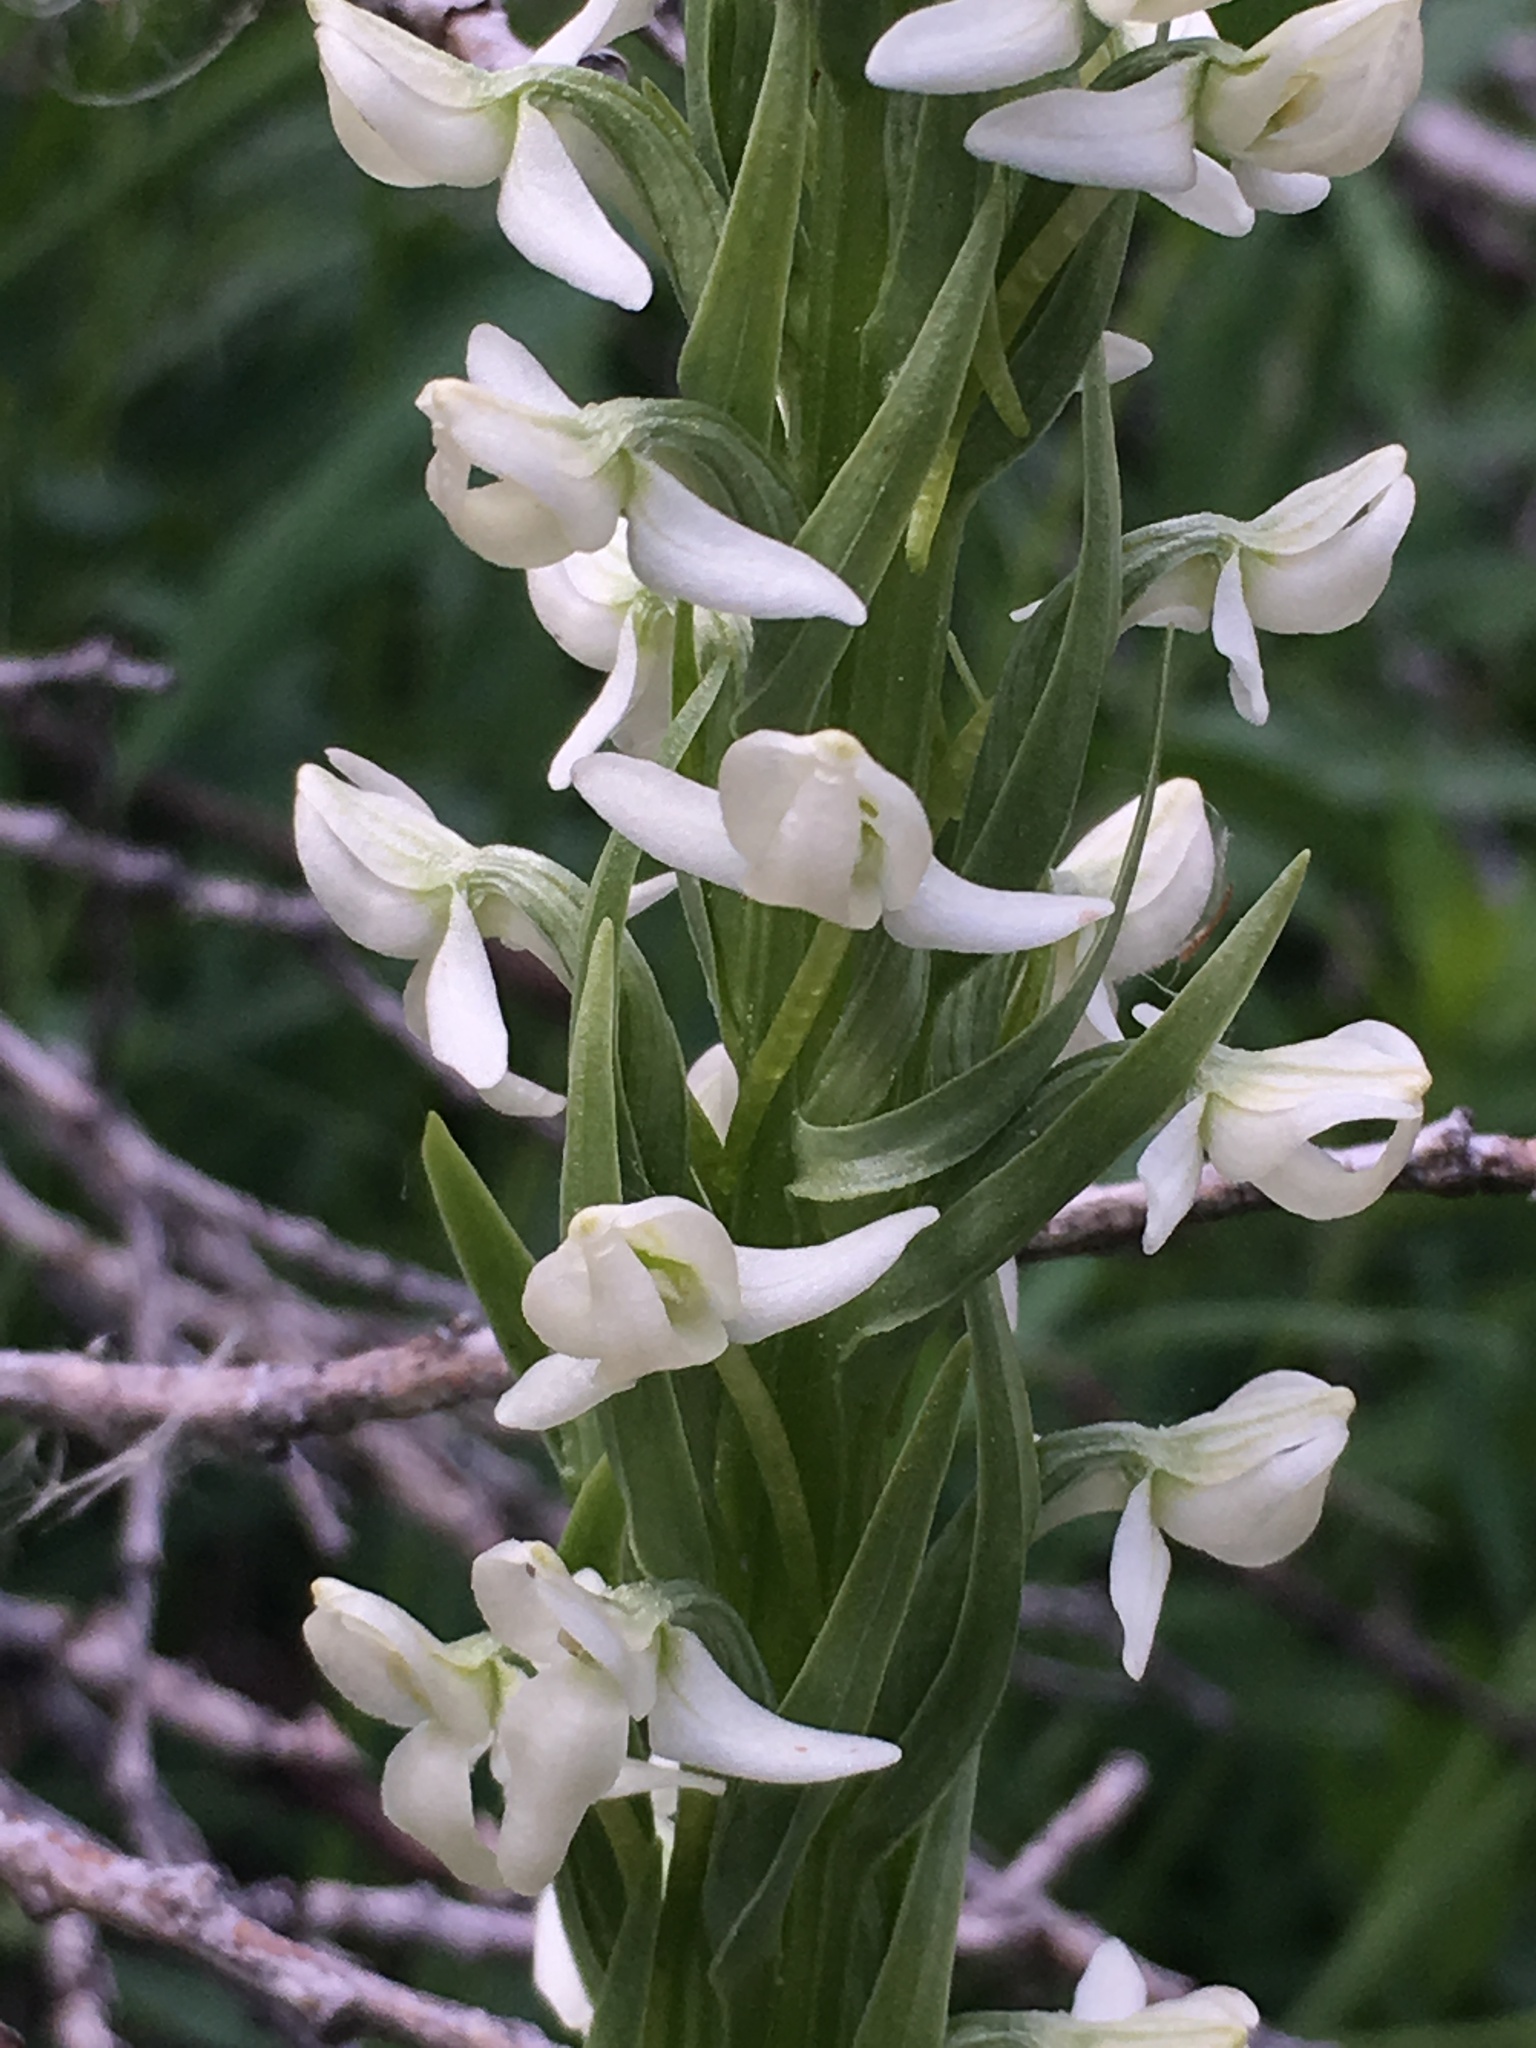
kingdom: Plantae
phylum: Tracheophyta
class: Liliopsida
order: Asparagales
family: Orchidaceae
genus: Platanthera
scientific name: Platanthera dilatata
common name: Bog candles
